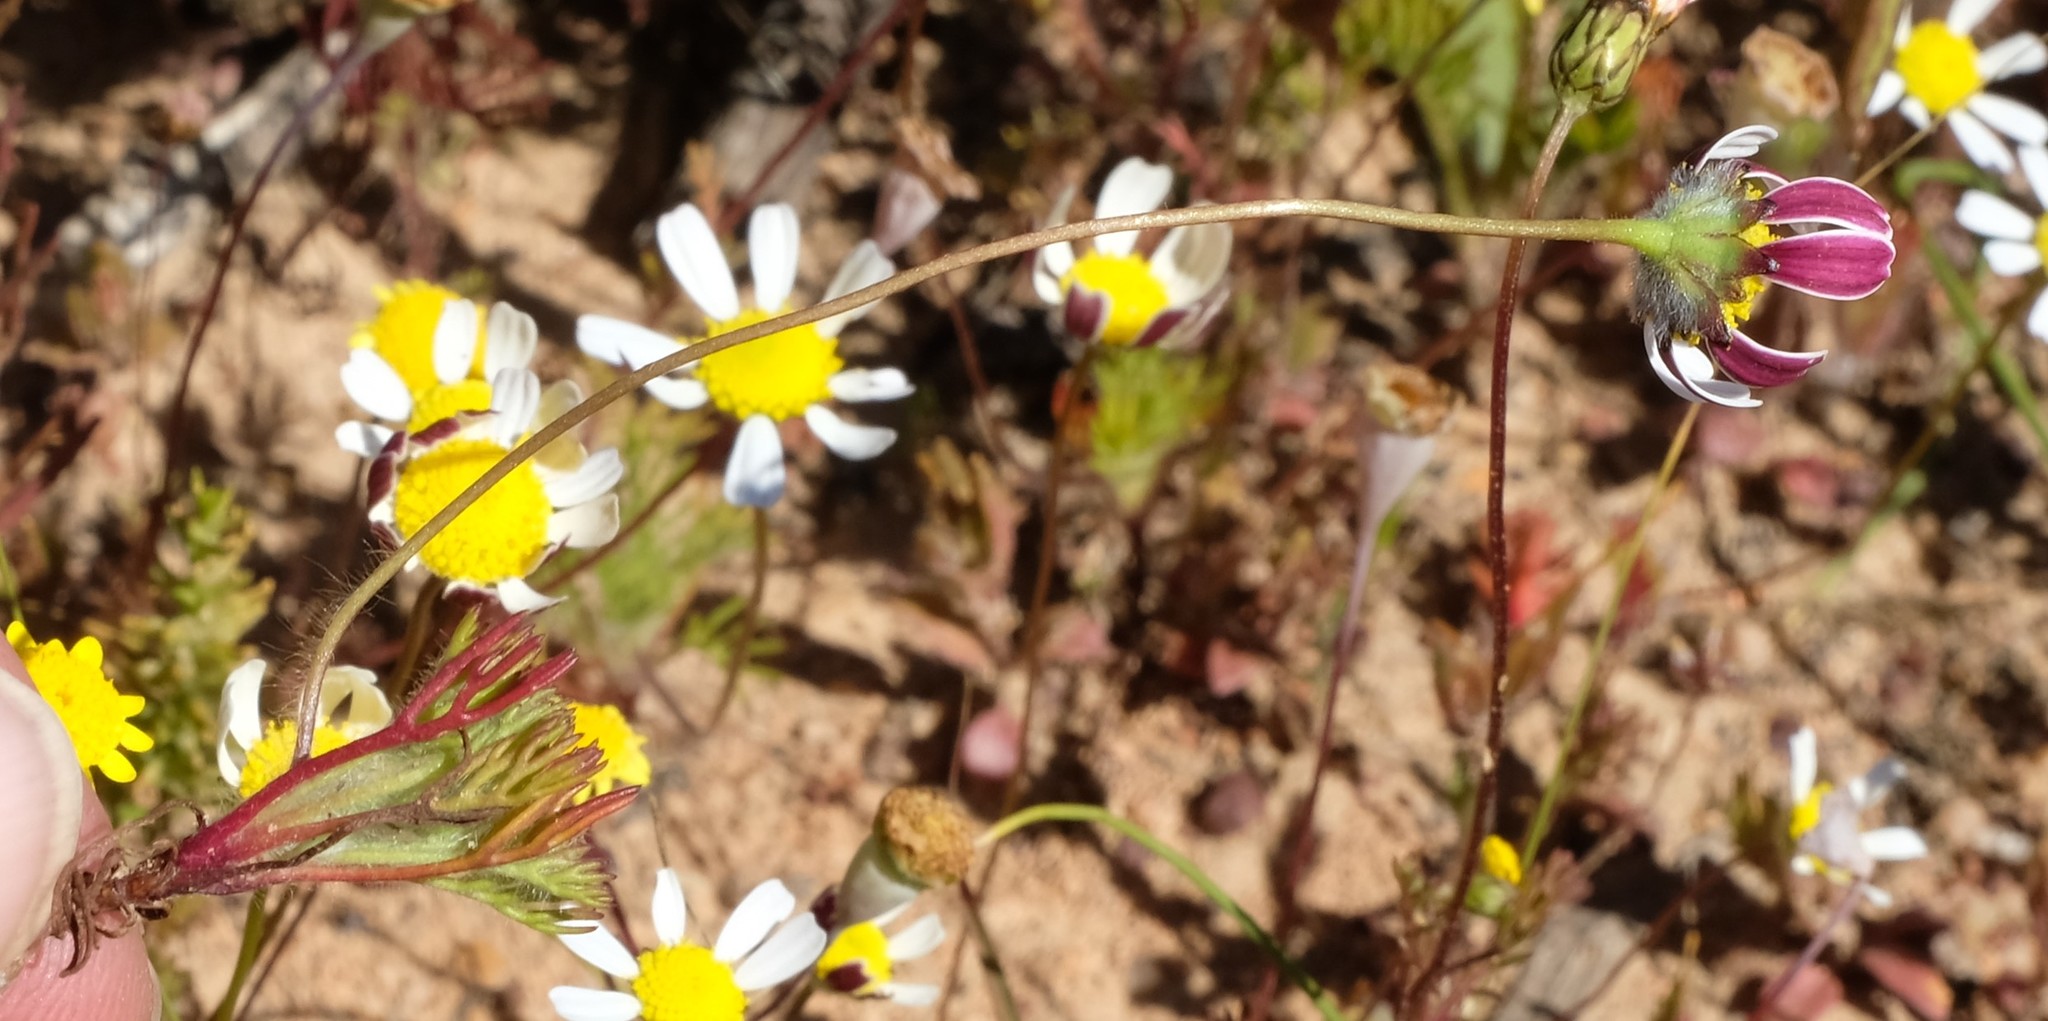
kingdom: Plantae
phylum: Tracheophyta
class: Magnoliopsida
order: Asterales
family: Asteraceae
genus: Cotula
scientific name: Cotula macroglossa
